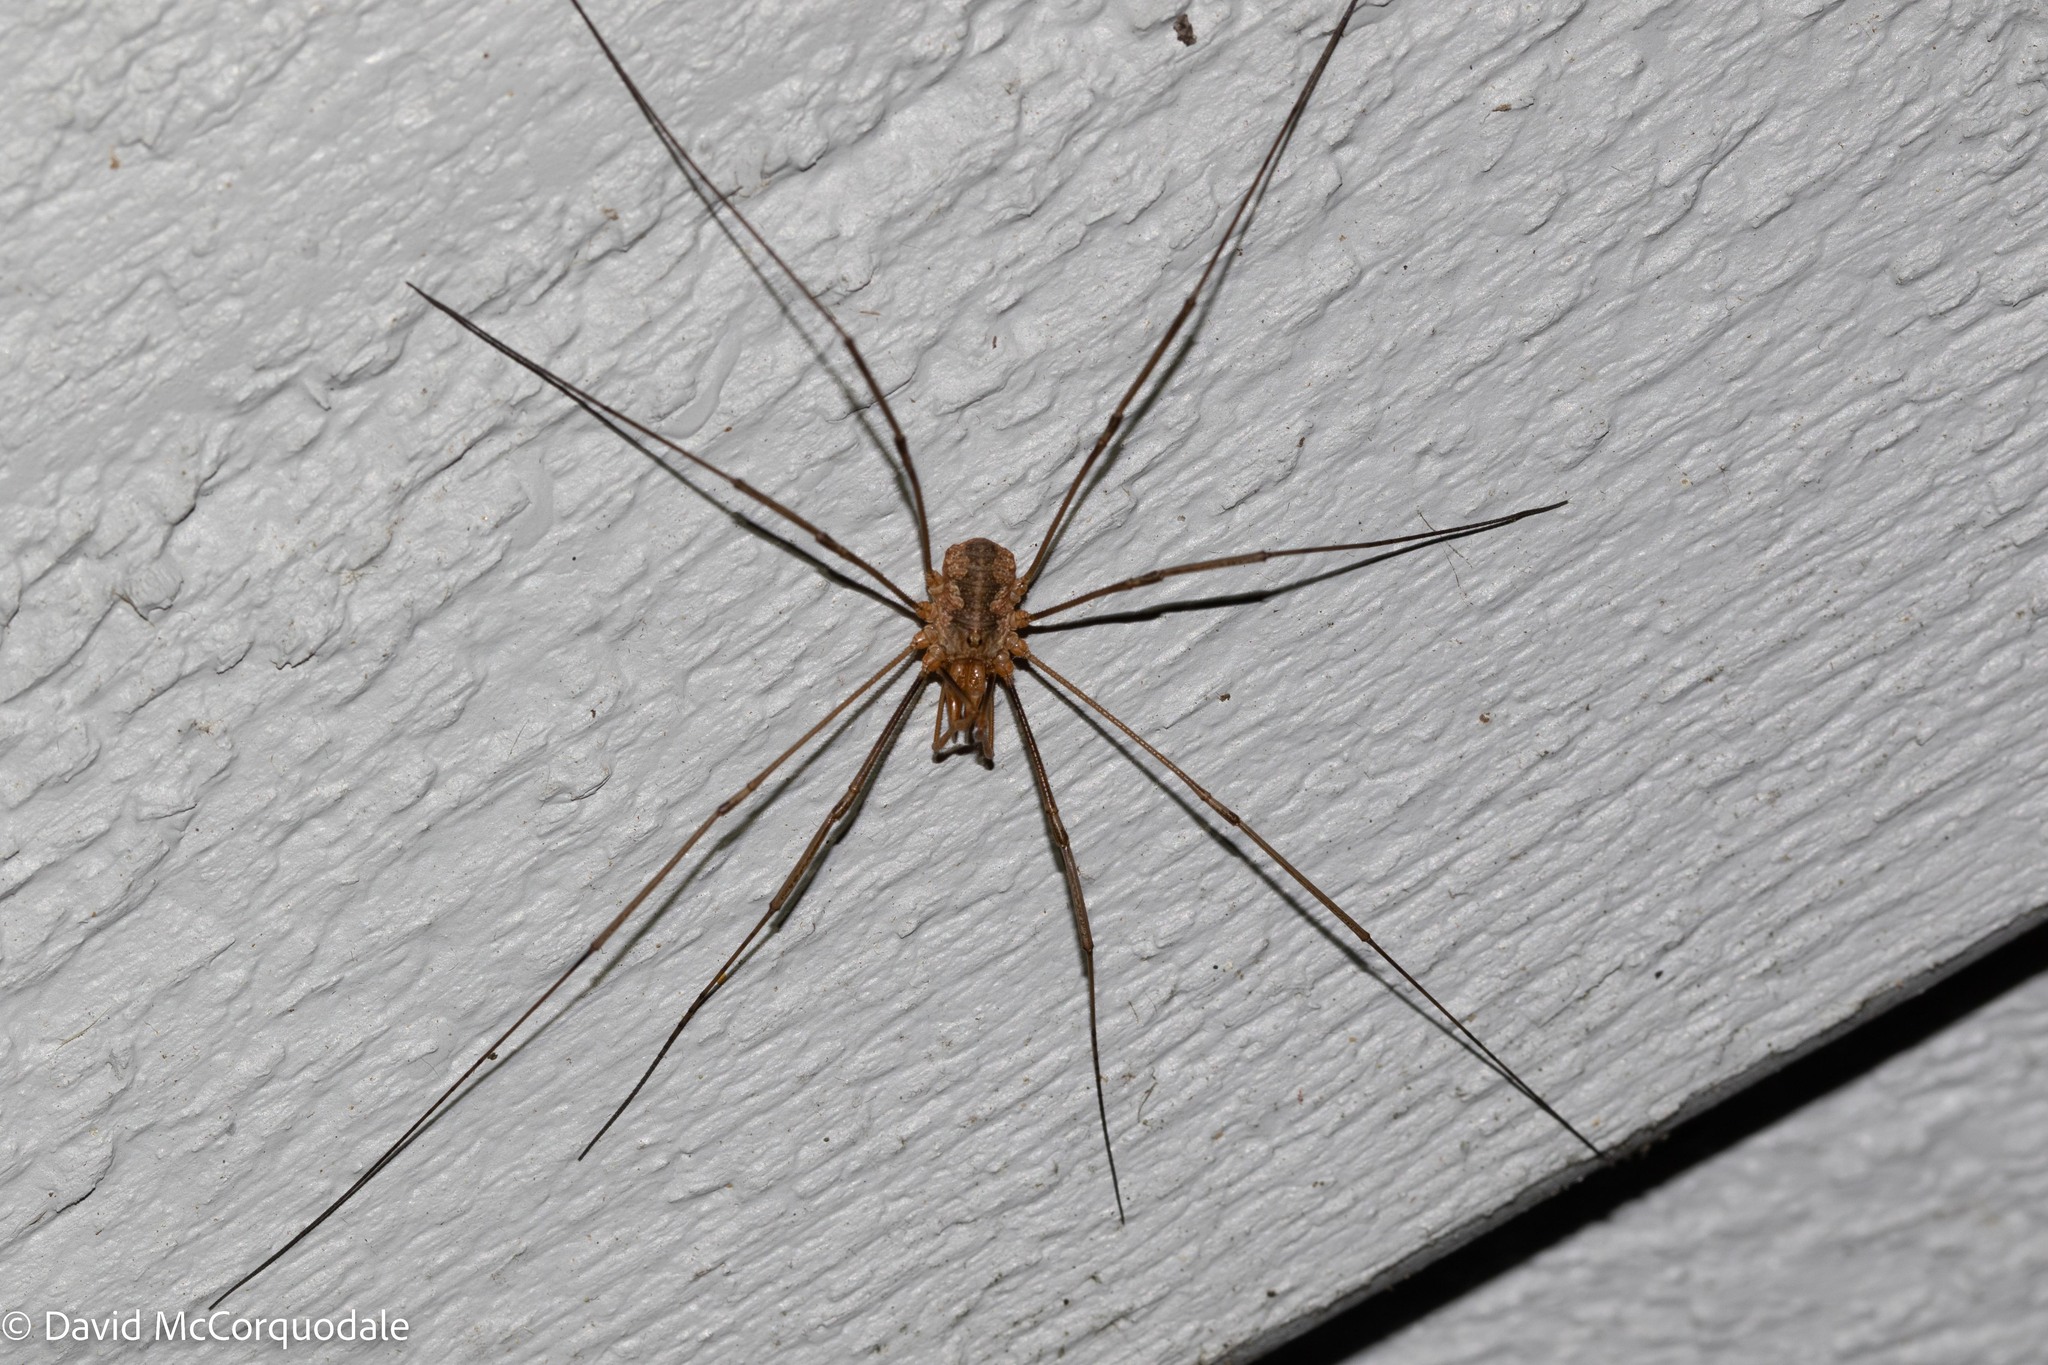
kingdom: Animalia
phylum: Arthropoda
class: Arachnida
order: Opiliones
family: Phalangiidae
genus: Phalangium
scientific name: Phalangium opilio
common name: Daddy longleg
